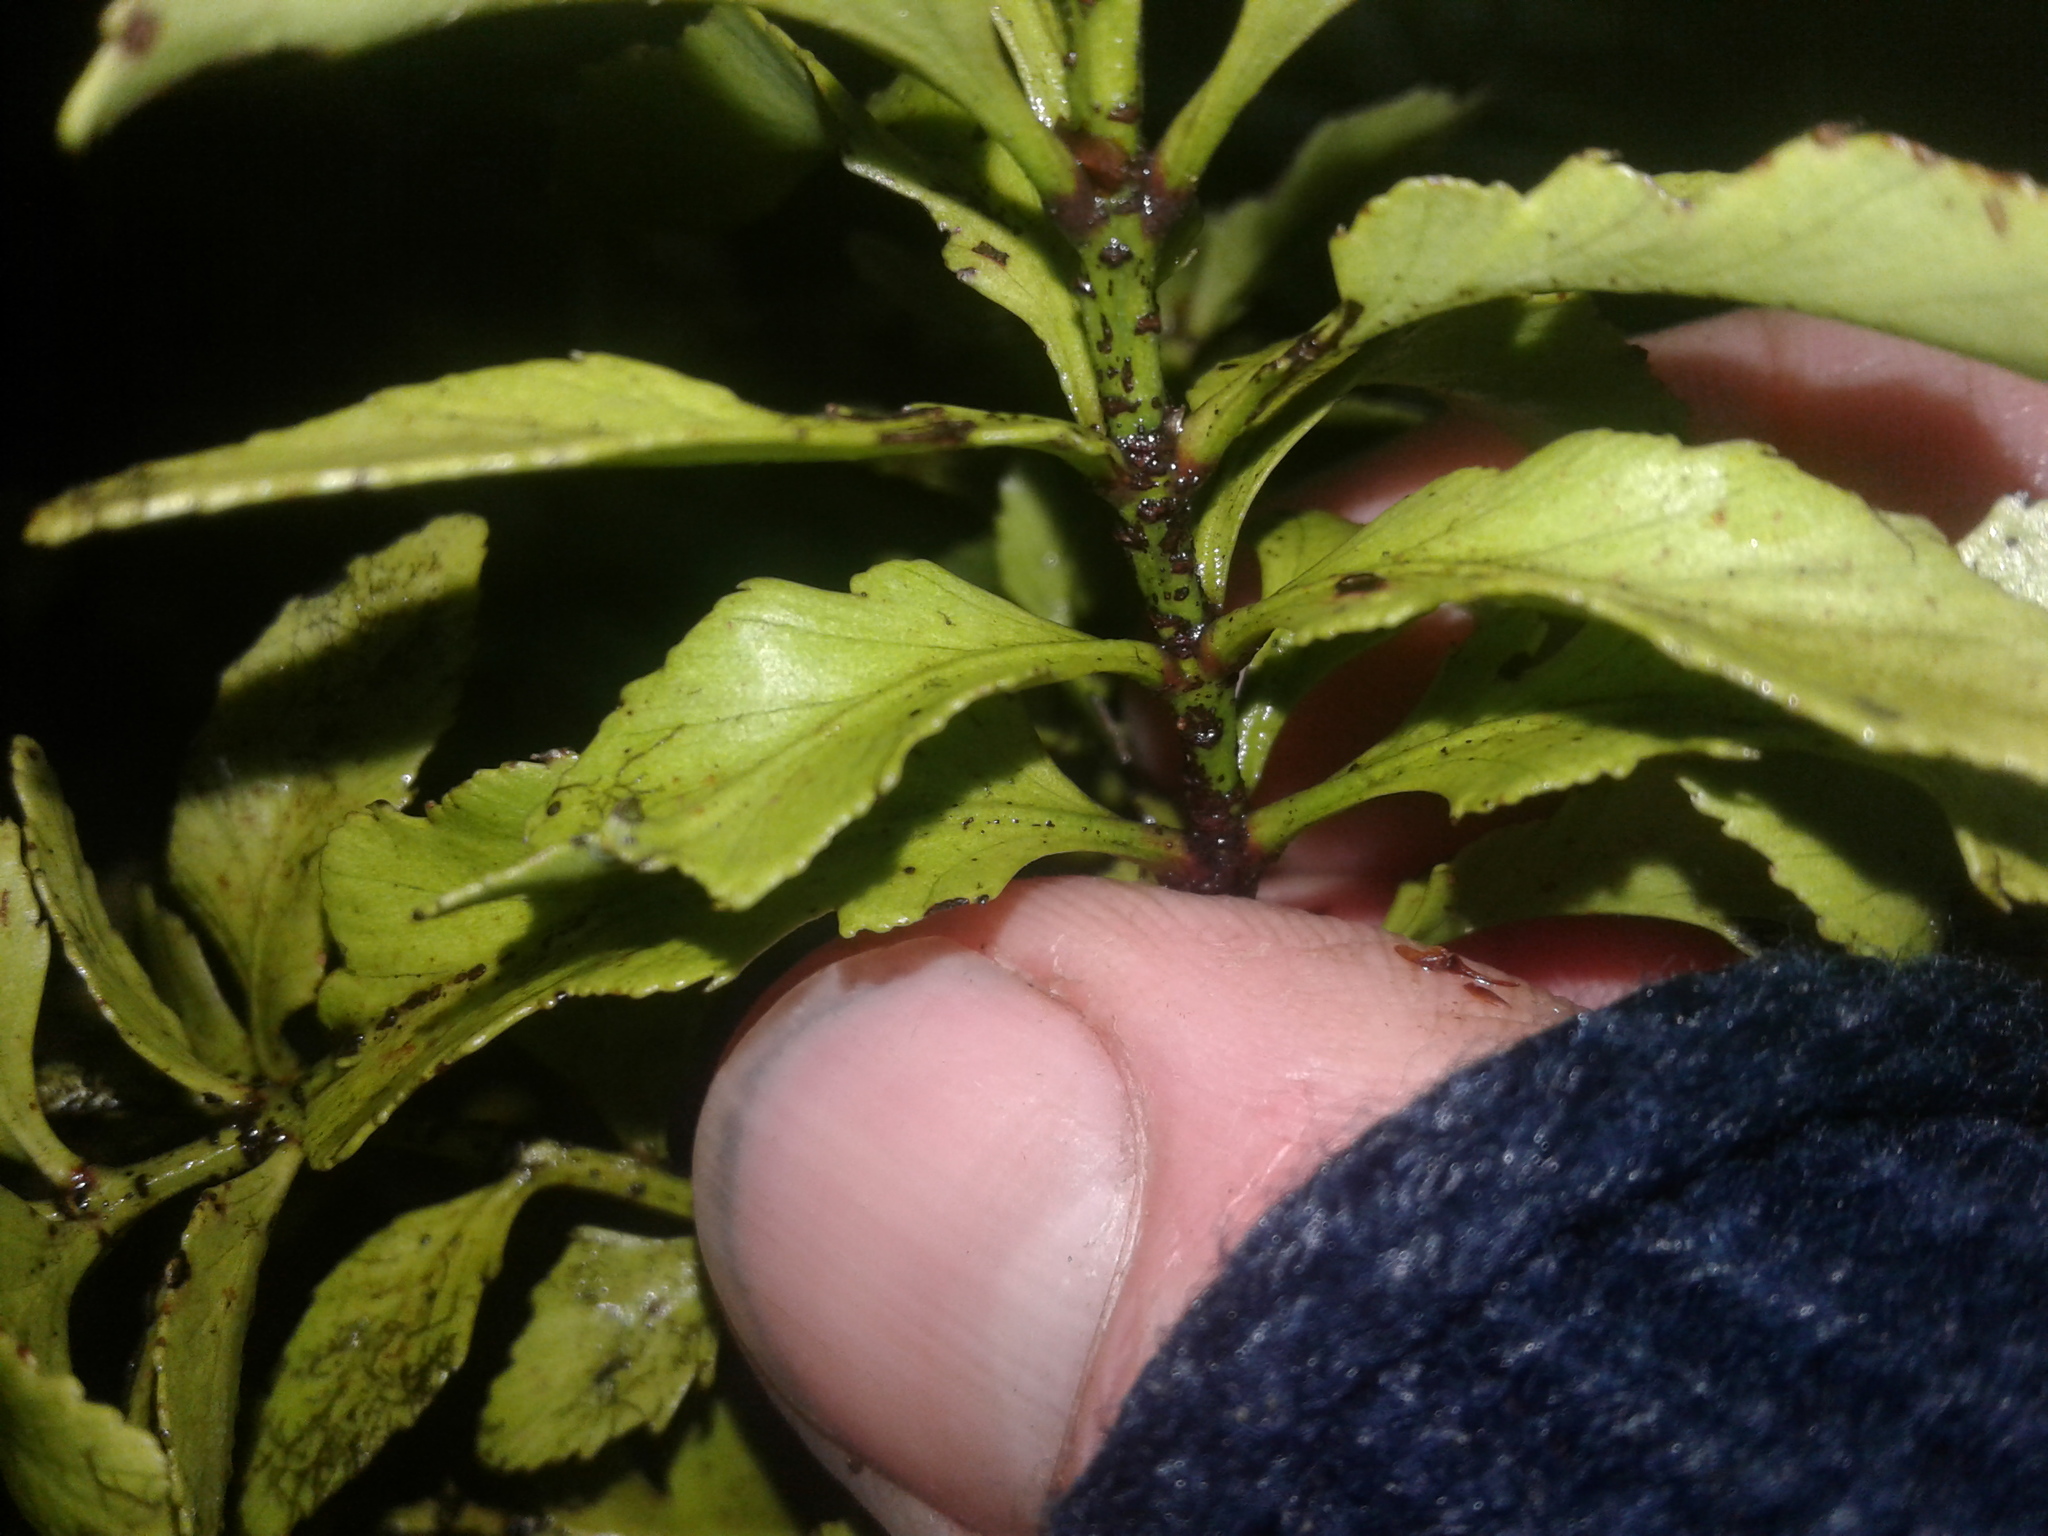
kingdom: Plantae
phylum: Tracheophyta
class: Pinopsida
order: Pinales
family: Phyllocladaceae
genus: Phyllocladus
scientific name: Phyllocladus trichomanoides
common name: Celery pine
